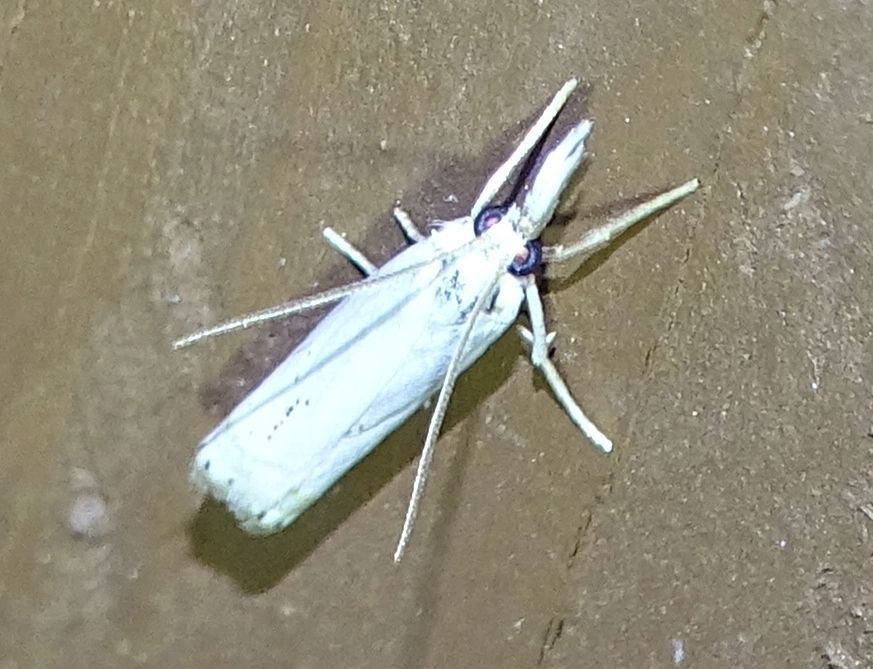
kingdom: Animalia
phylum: Arthropoda
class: Insecta
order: Lepidoptera
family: Crambidae
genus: Crambus
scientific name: Crambus albellus
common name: Small white grass-veneer
